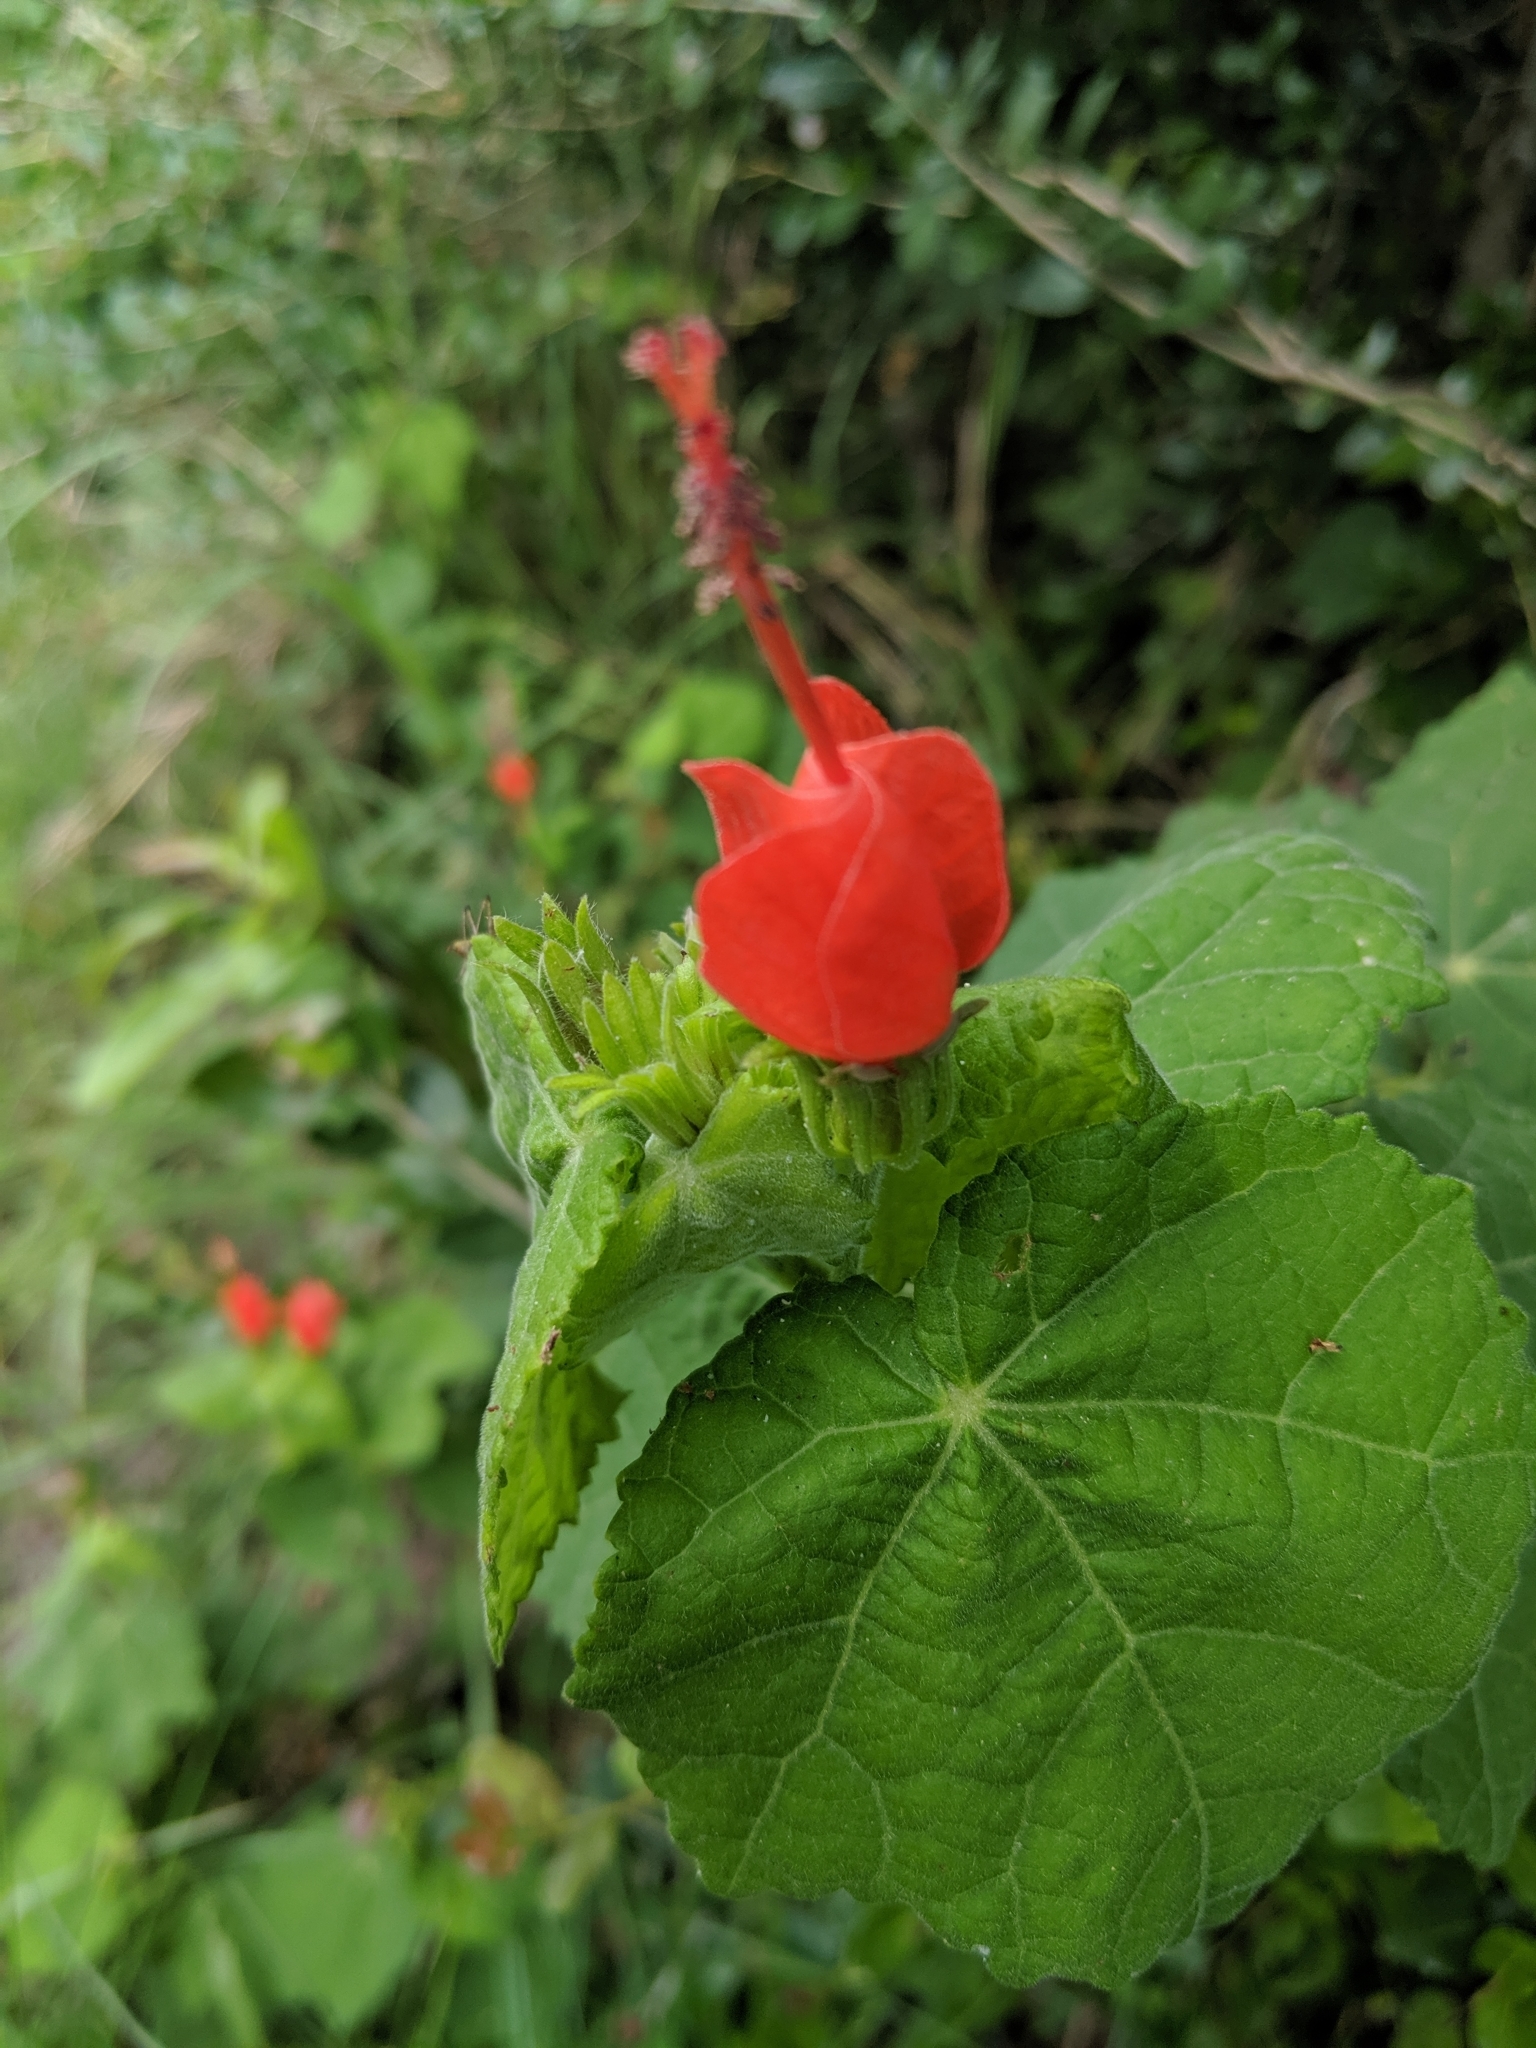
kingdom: Plantae
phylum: Tracheophyta
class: Magnoliopsida
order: Malvales
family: Malvaceae
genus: Malvaviscus
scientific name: Malvaviscus arboreus
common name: Wax mallow
